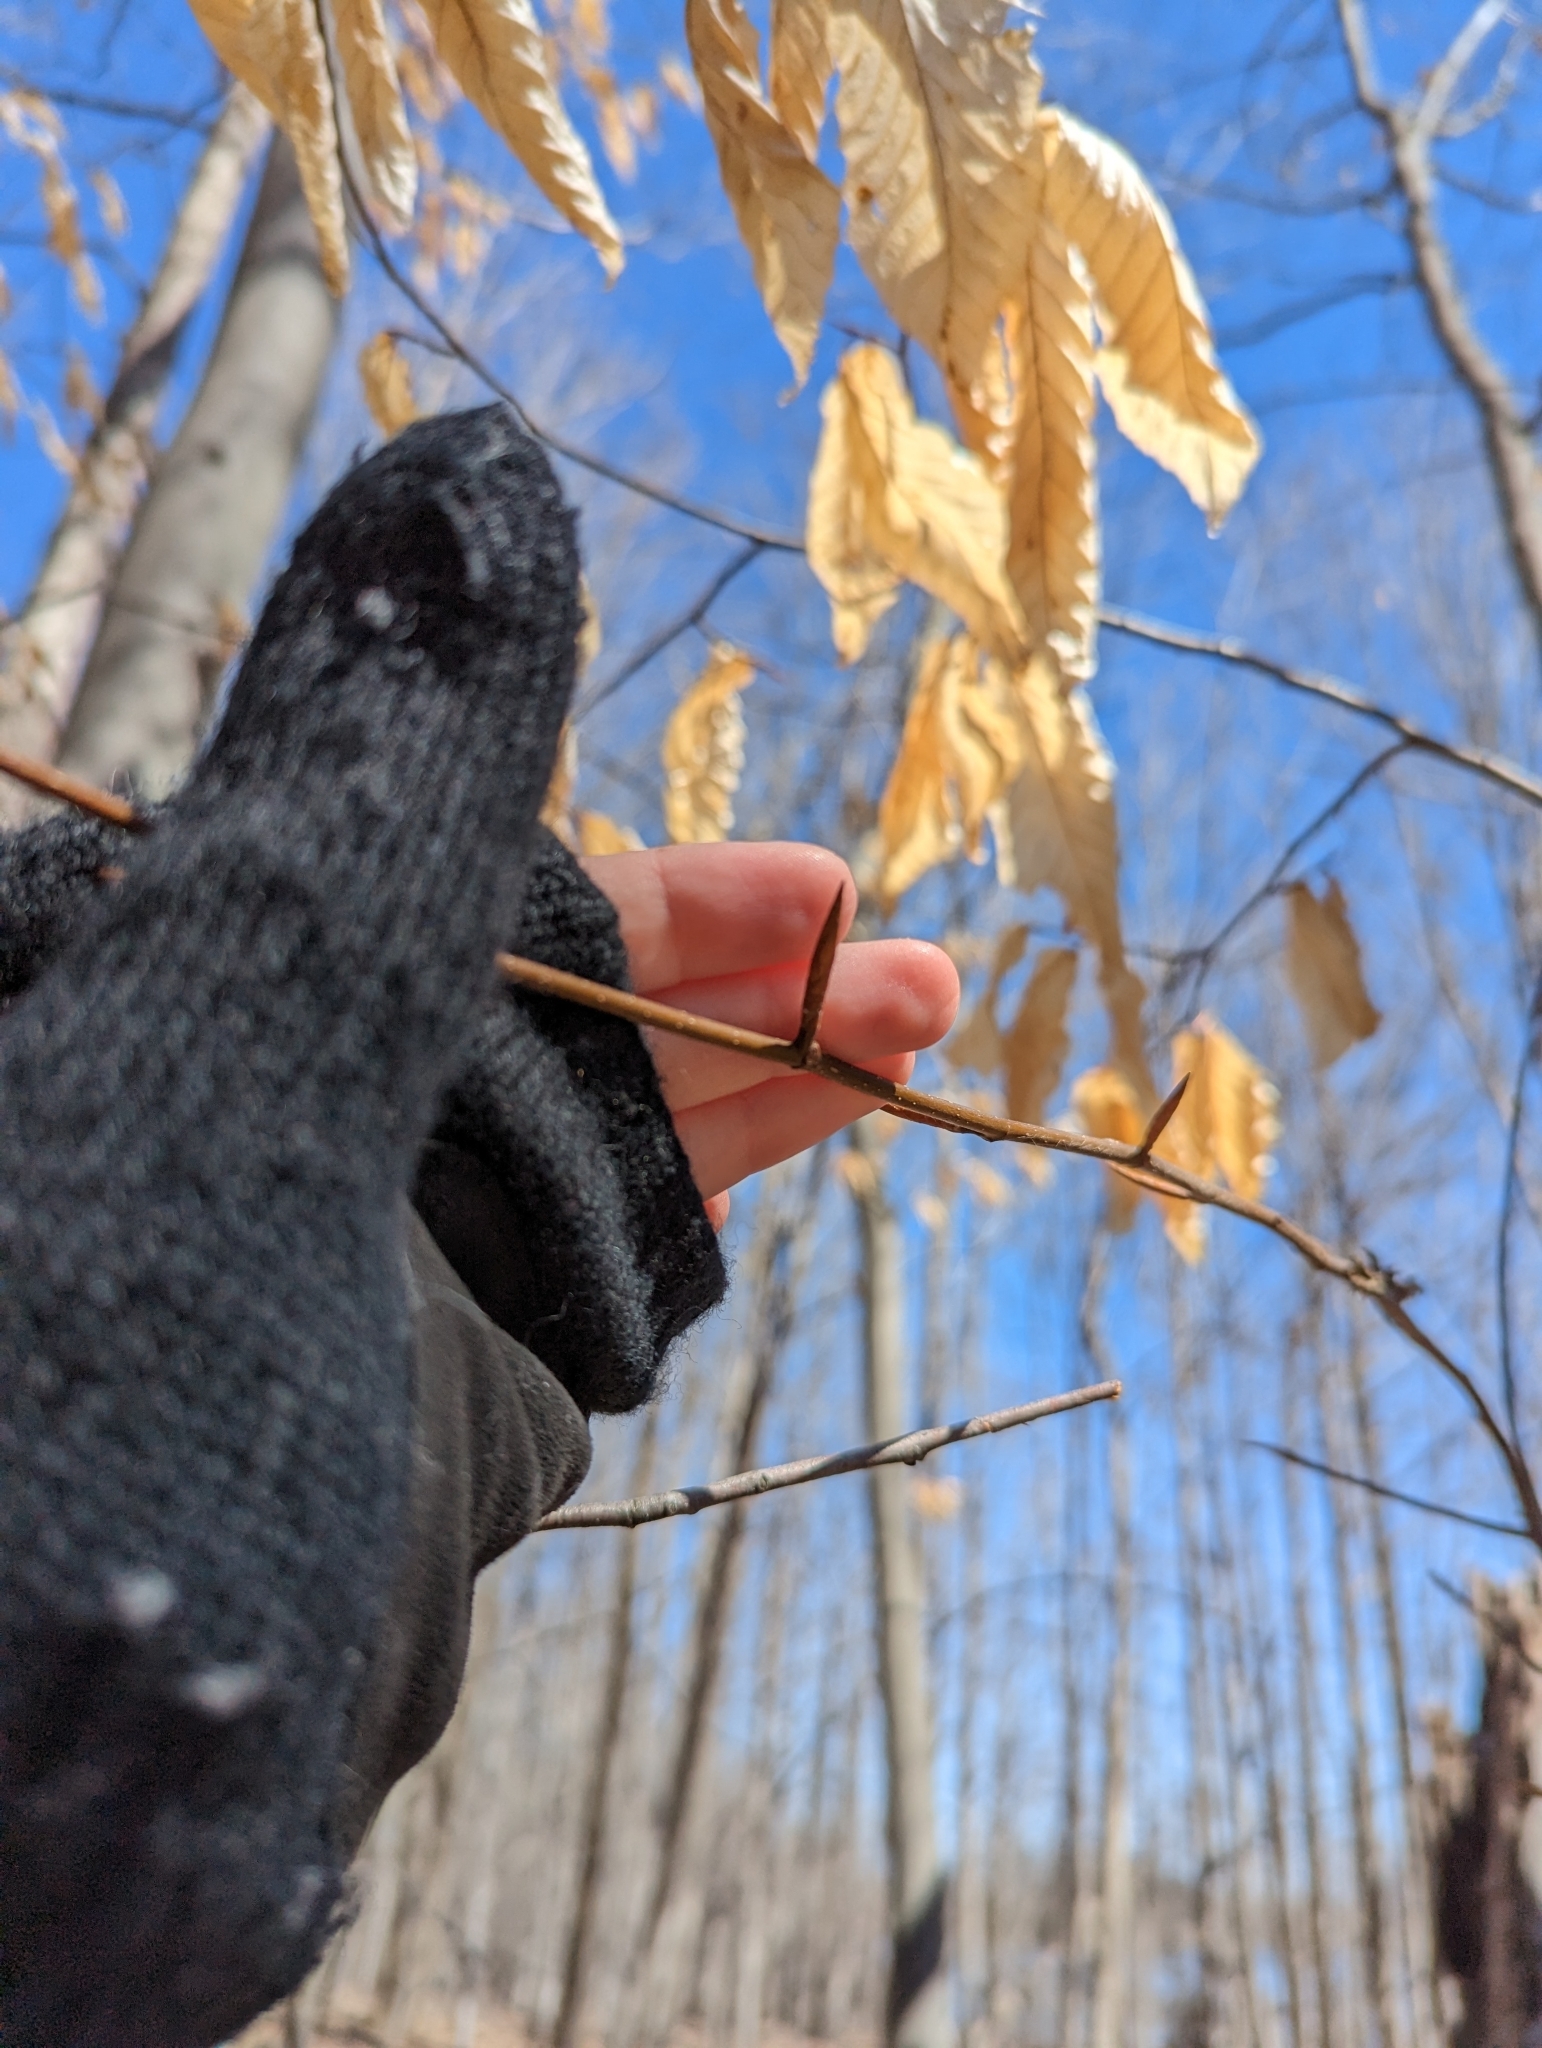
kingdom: Plantae
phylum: Tracheophyta
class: Magnoliopsida
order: Fagales
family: Fagaceae
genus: Fagus
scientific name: Fagus grandifolia
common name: American beech
